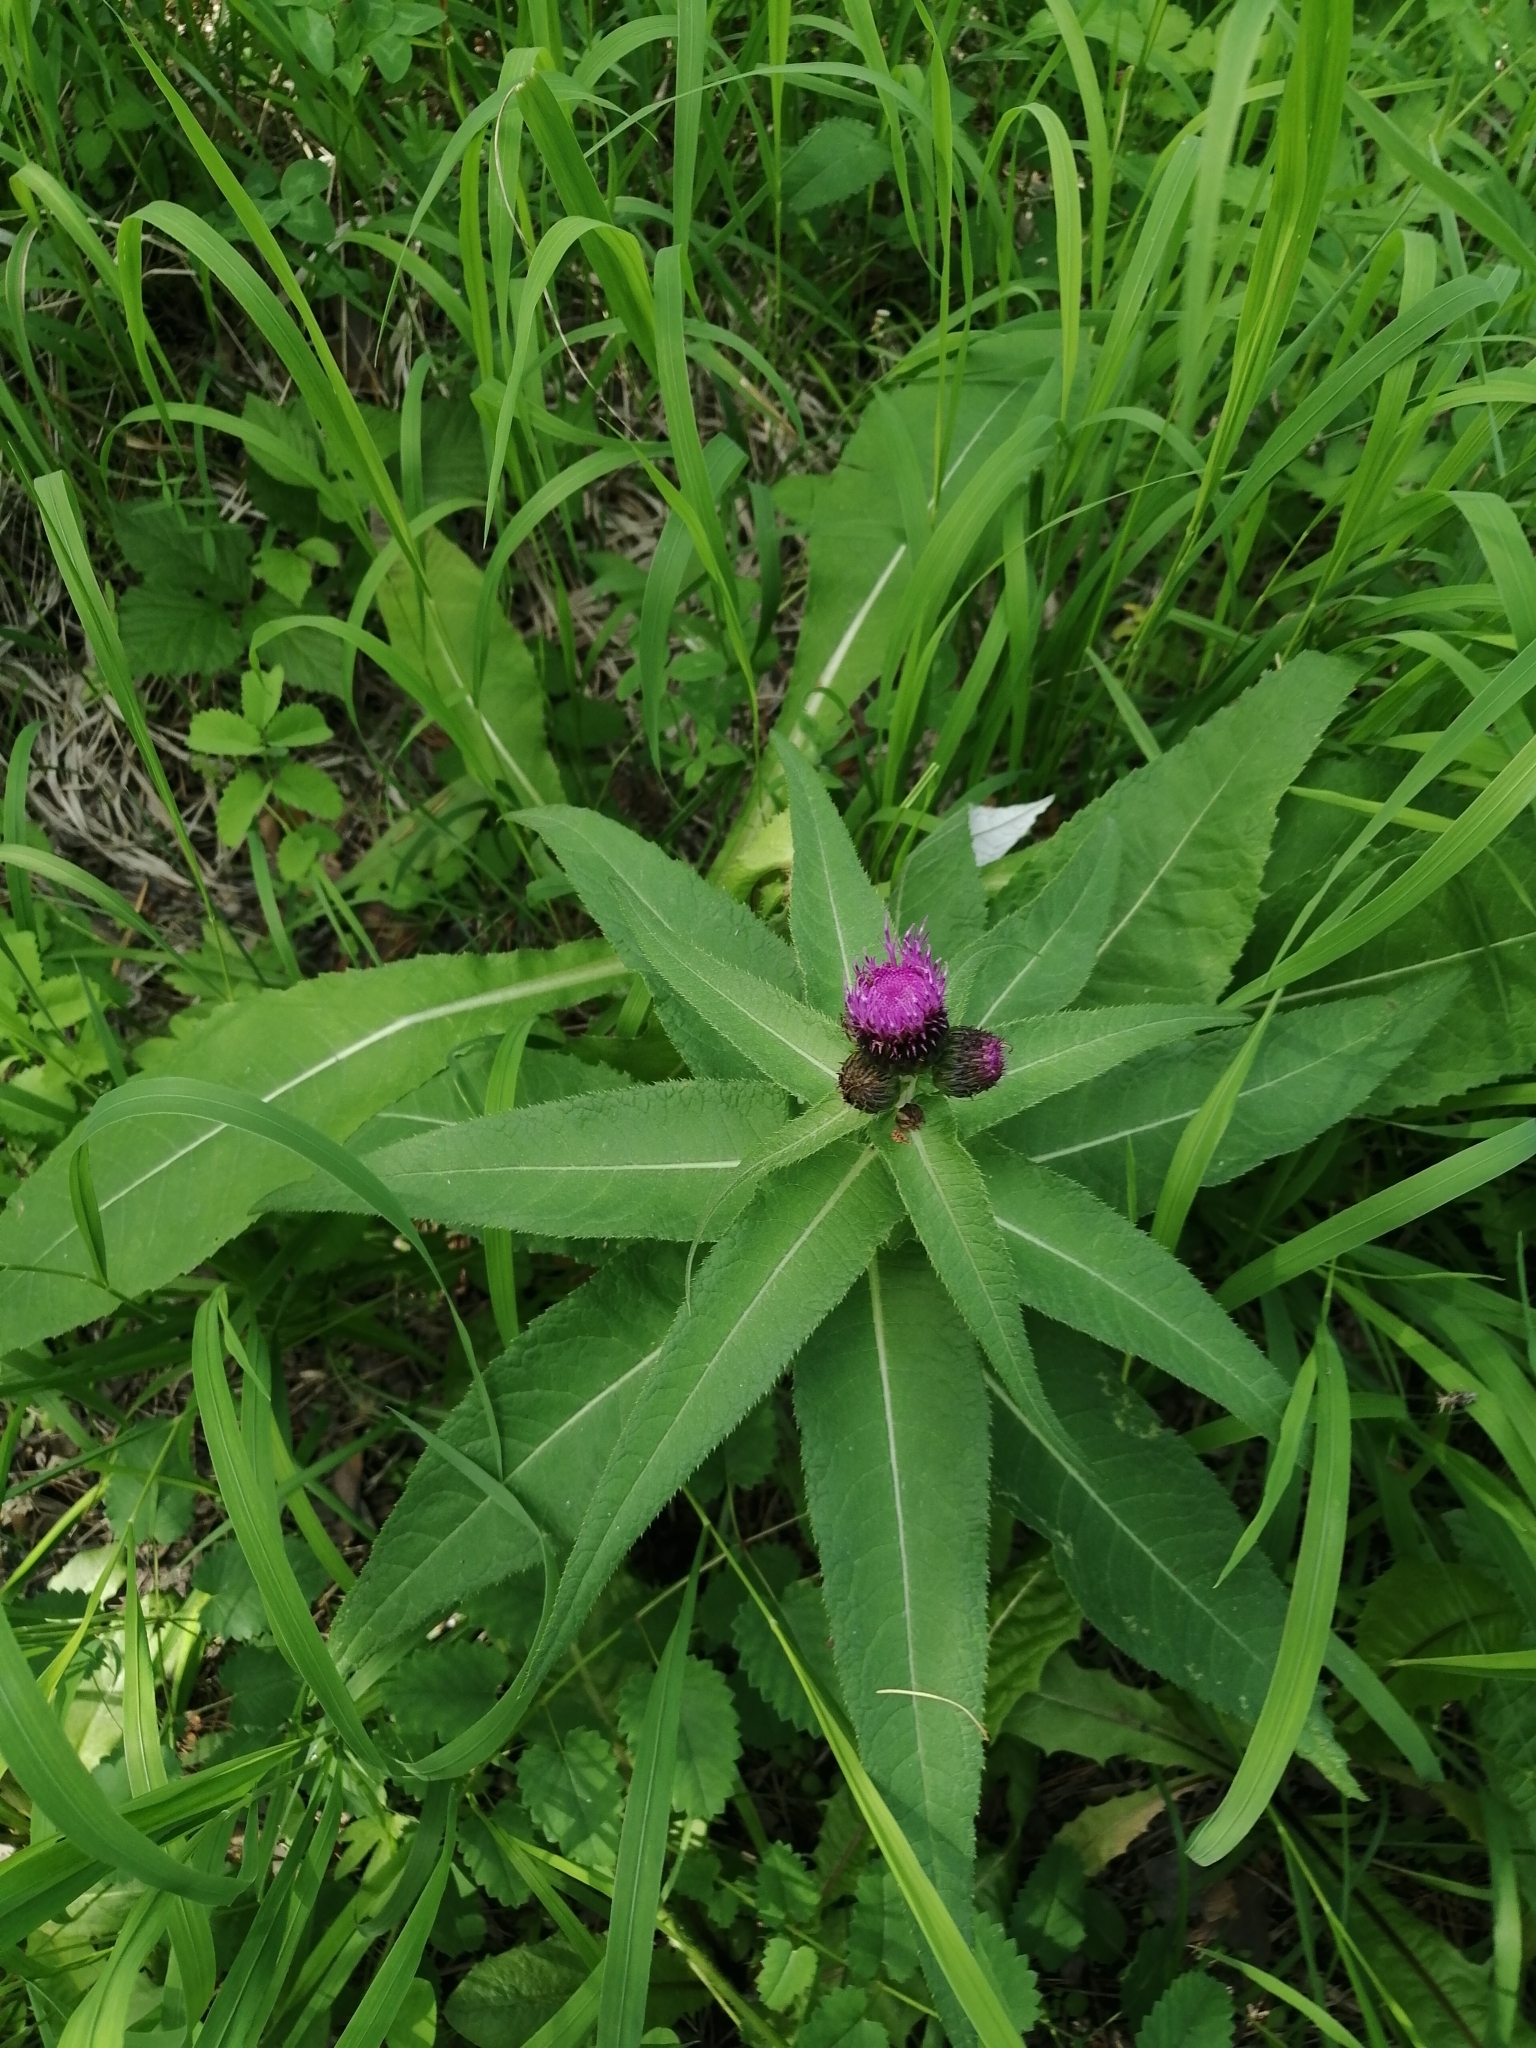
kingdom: Plantae
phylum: Tracheophyta
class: Magnoliopsida
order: Asterales
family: Asteraceae
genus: Cirsium
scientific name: Cirsium helenioides
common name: Melancholy thistle
